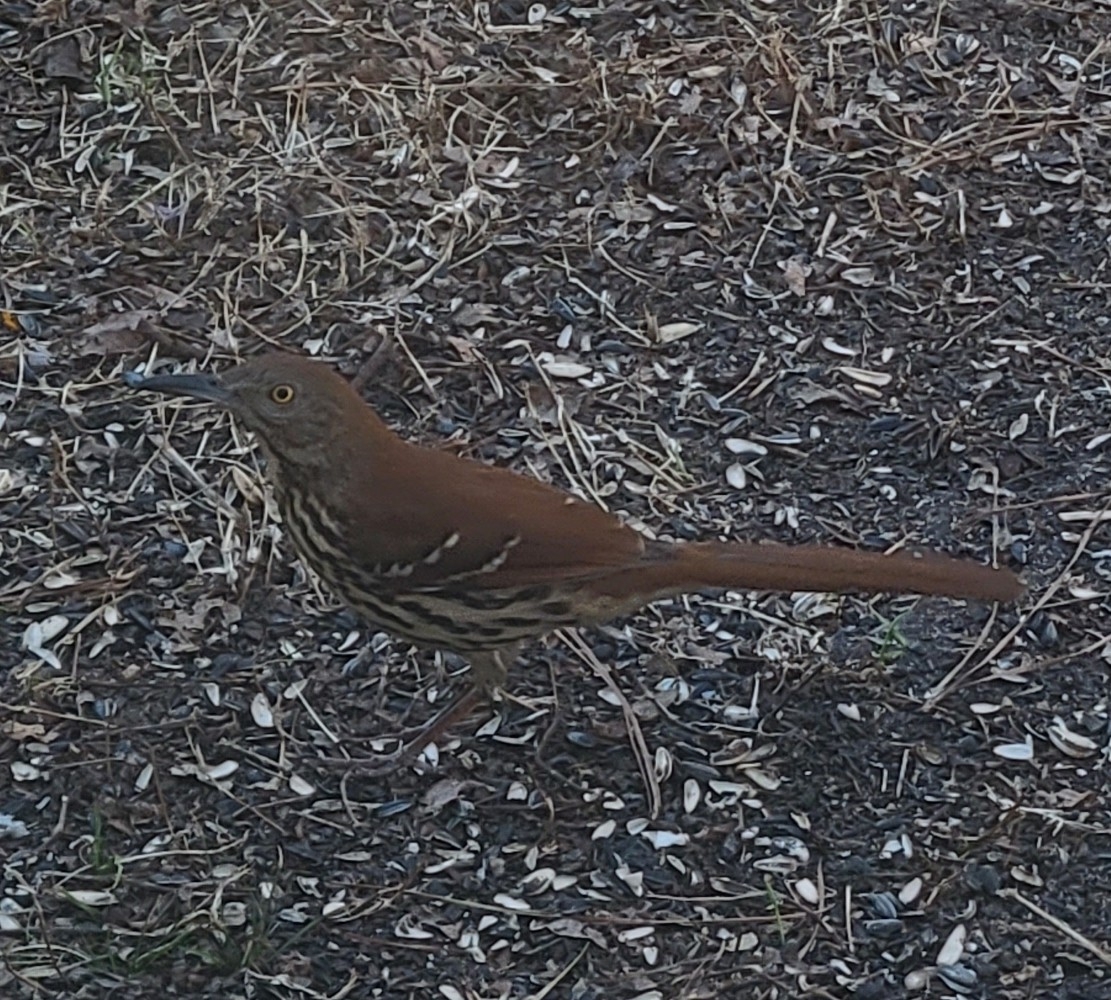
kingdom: Animalia
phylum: Chordata
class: Aves
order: Passeriformes
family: Mimidae
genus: Toxostoma
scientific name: Toxostoma rufum
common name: Brown thrasher
